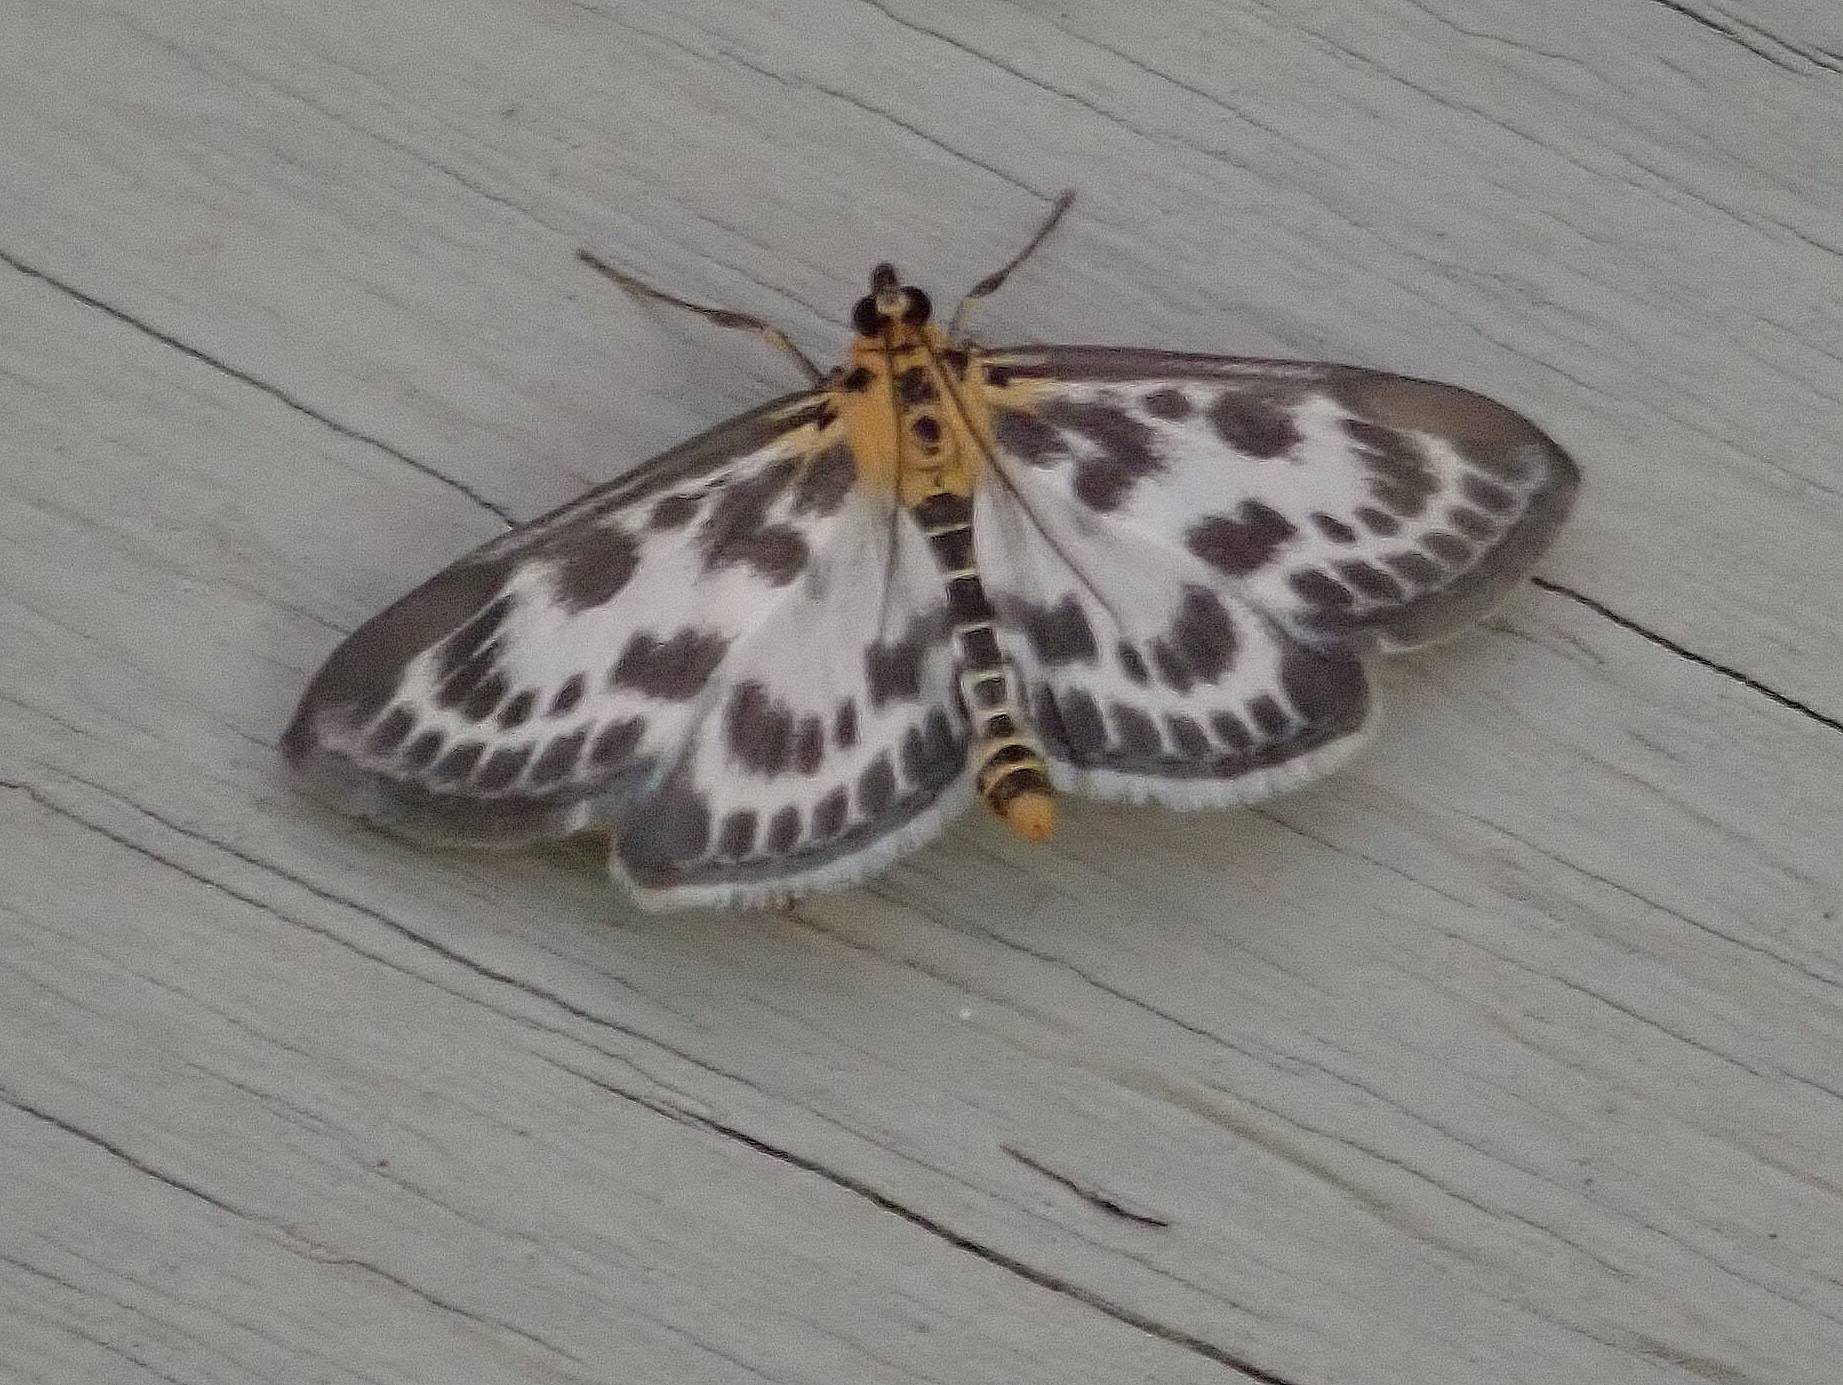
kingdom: Animalia
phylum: Arthropoda
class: Insecta
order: Lepidoptera
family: Crambidae
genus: Anania
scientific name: Anania hortulata
